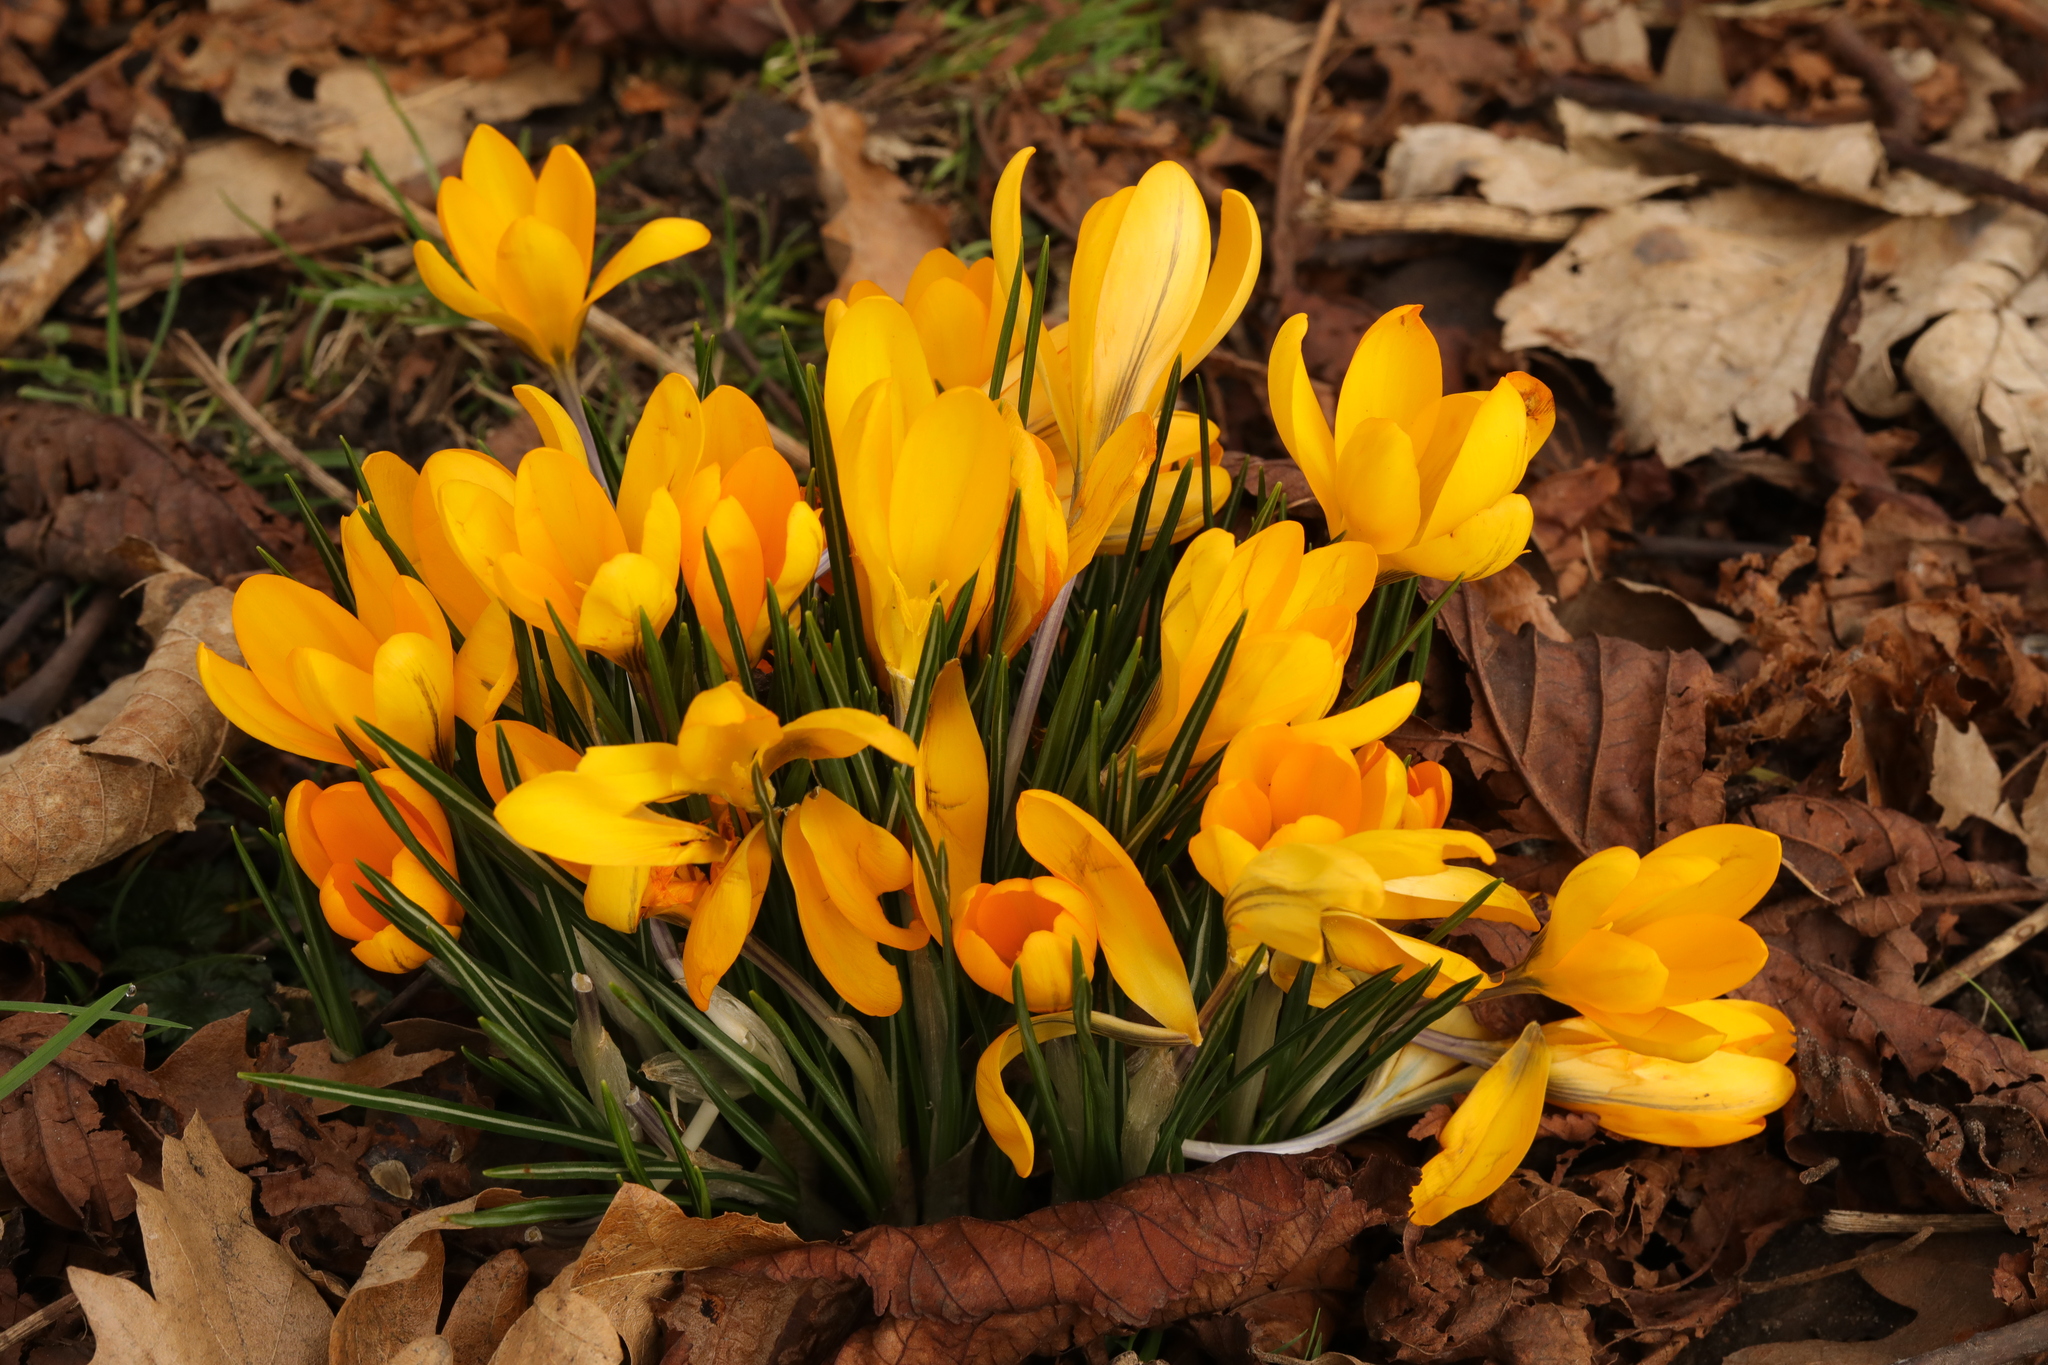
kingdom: Plantae
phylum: Tracheophyta
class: Liliopsida
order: Asparagales
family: Iridaceae
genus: Crocus
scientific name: Crocus luteus
